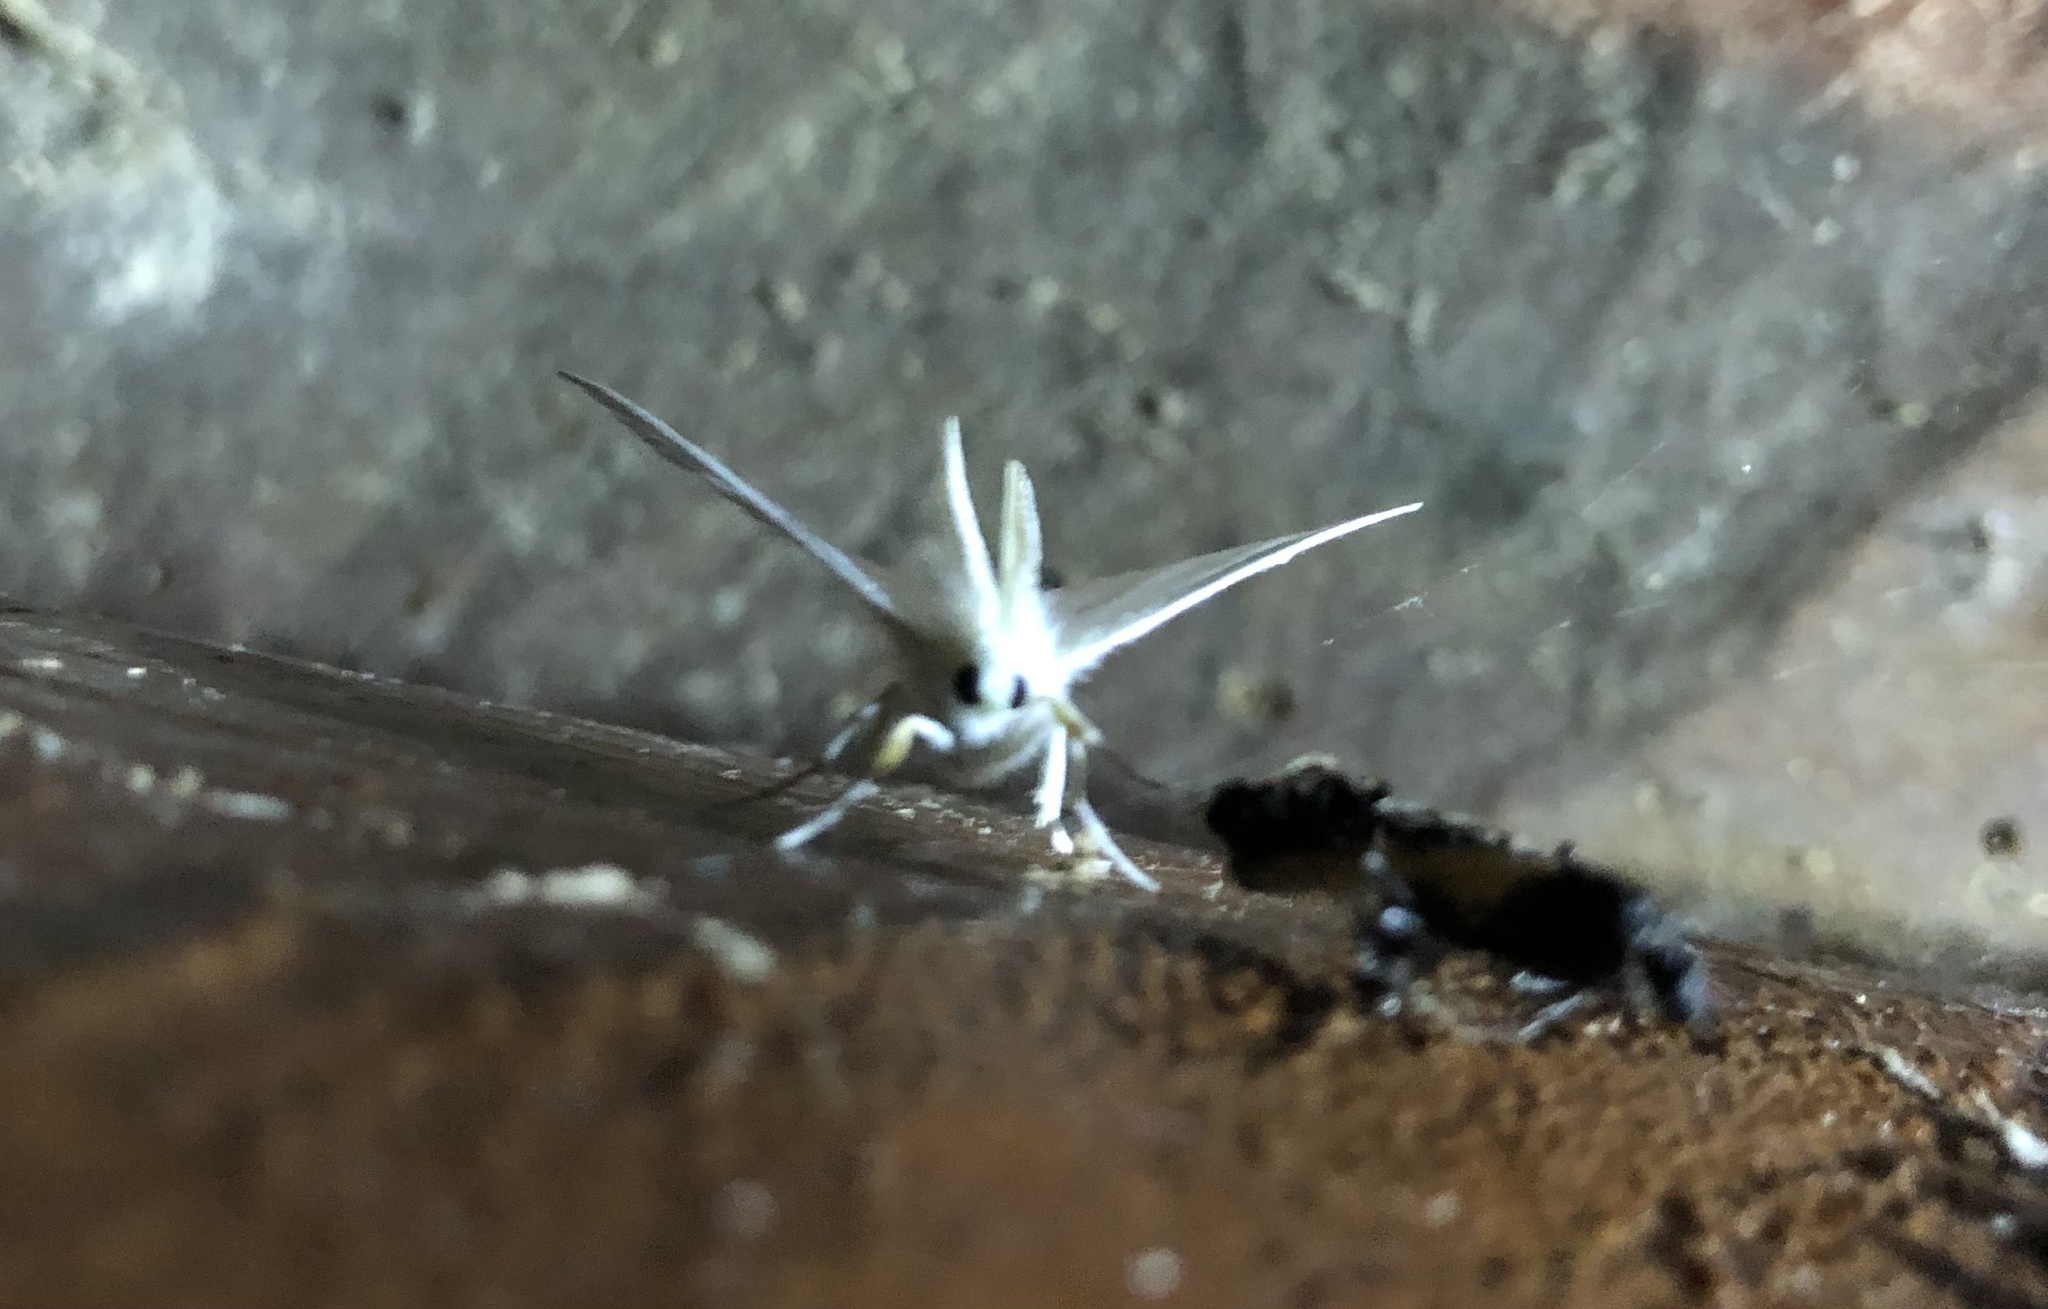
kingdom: Animalia
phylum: Arthropoda
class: Insecta
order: Lepidoptera
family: Geometridae
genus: Ennomos
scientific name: Ennomos subsignaria
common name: Elm spanworm
